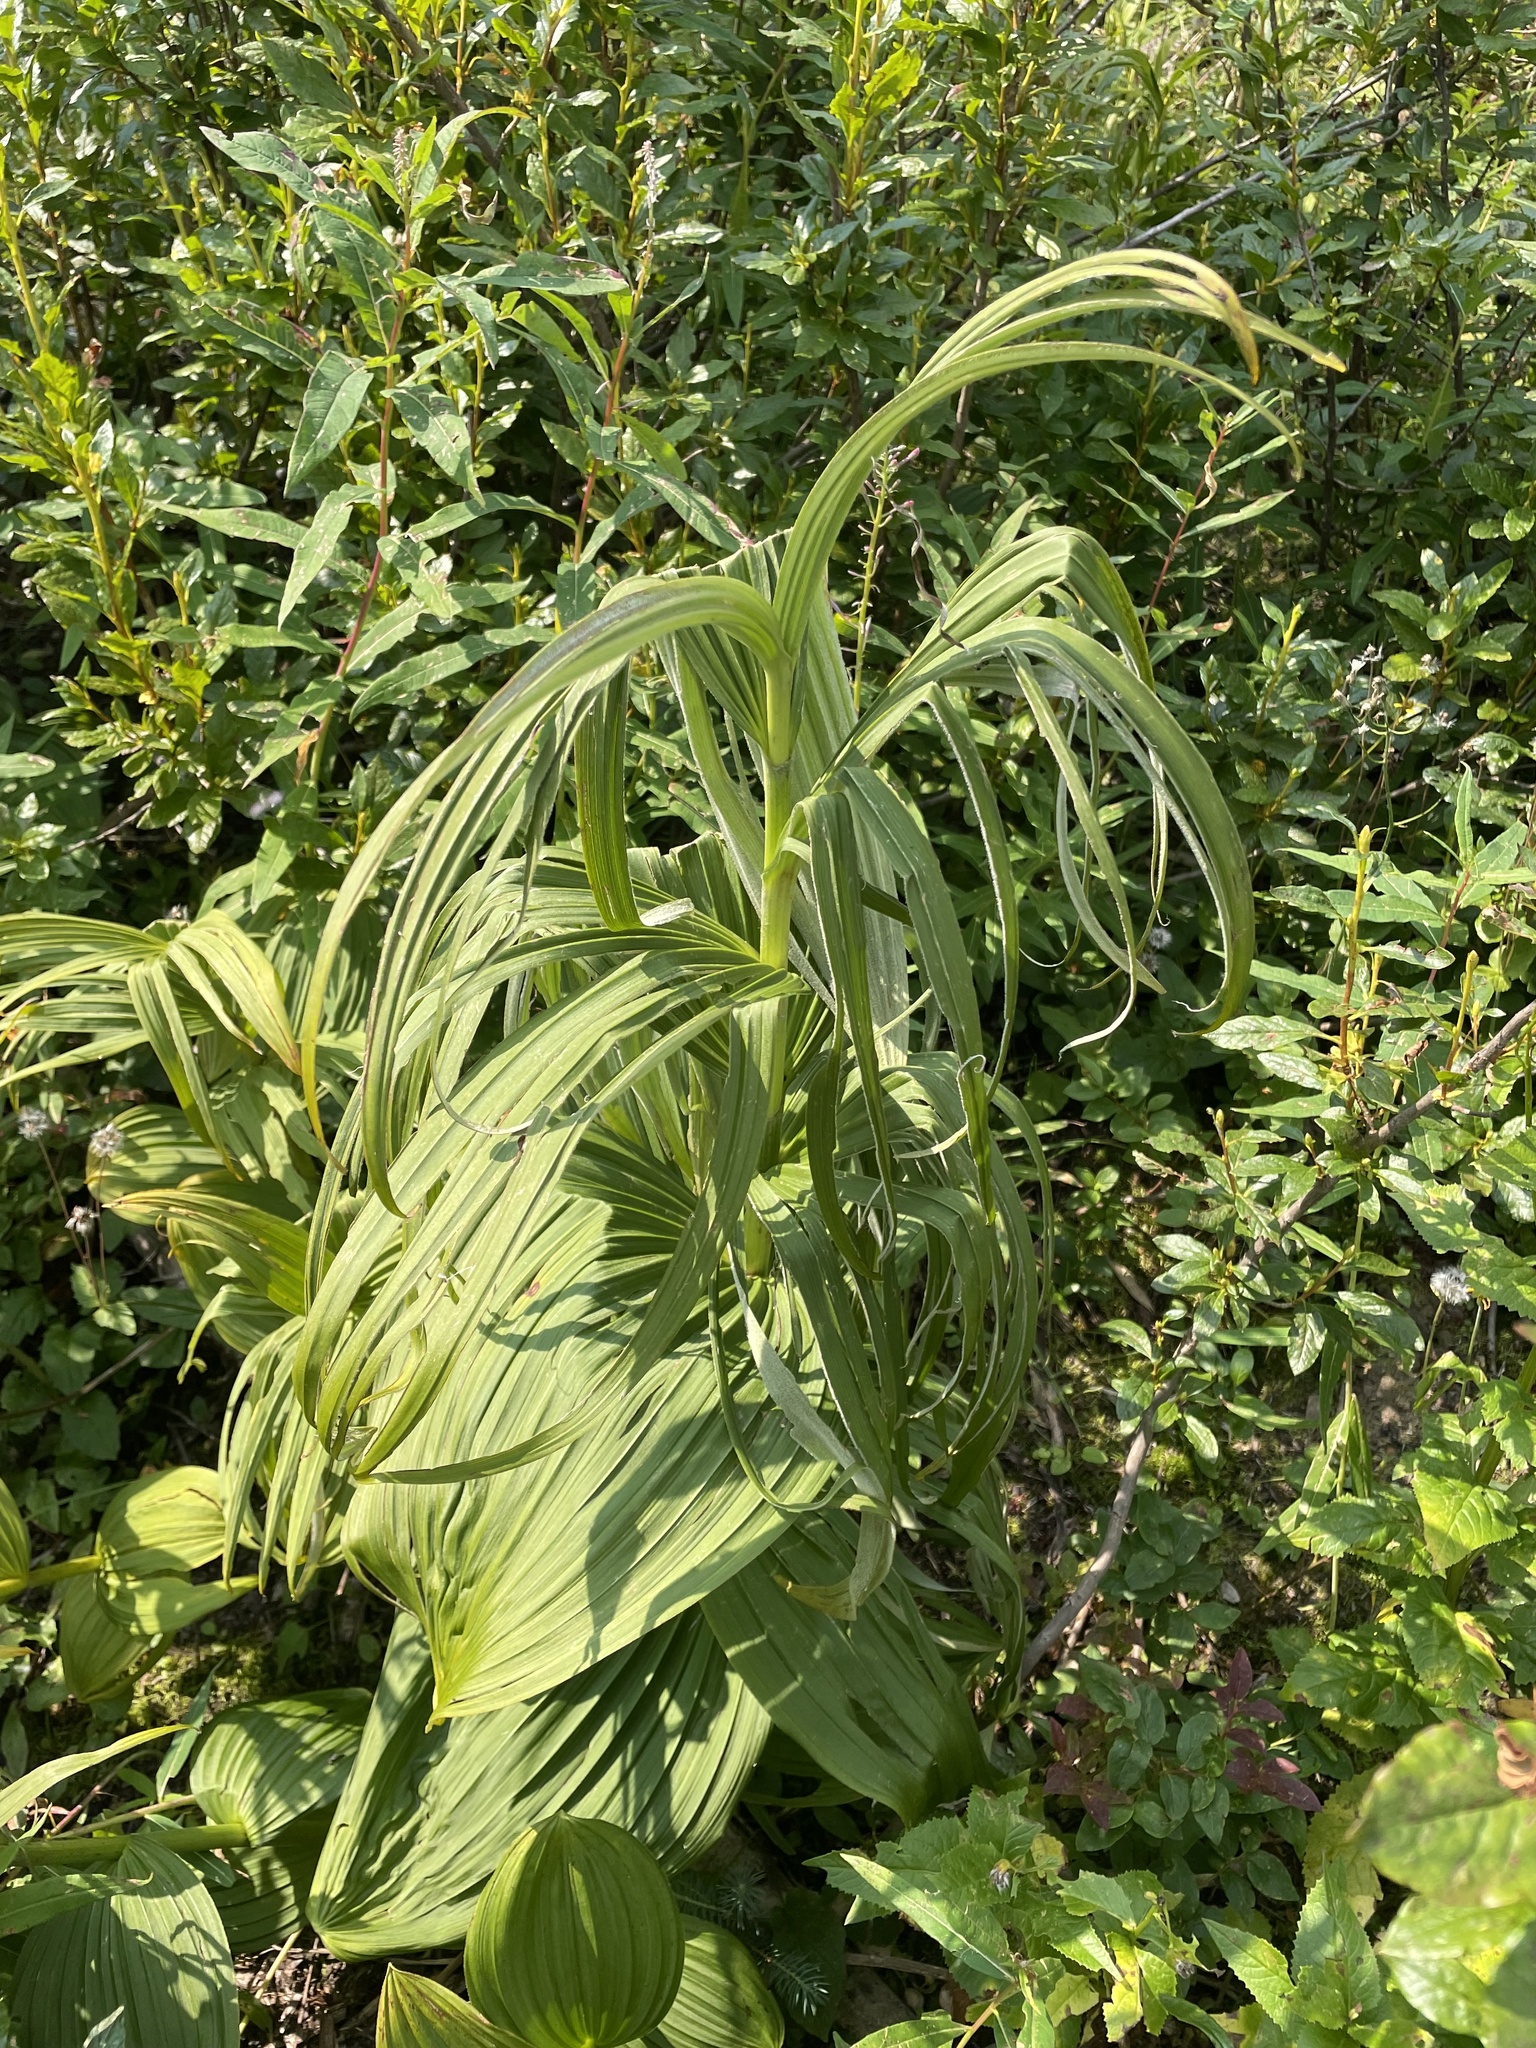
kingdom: Plantae
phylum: Tracheophyta
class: Liliopsida
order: Liliales
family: Melanthiaceae
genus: Veratrum
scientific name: Veratrum viride
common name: American false hellebore
